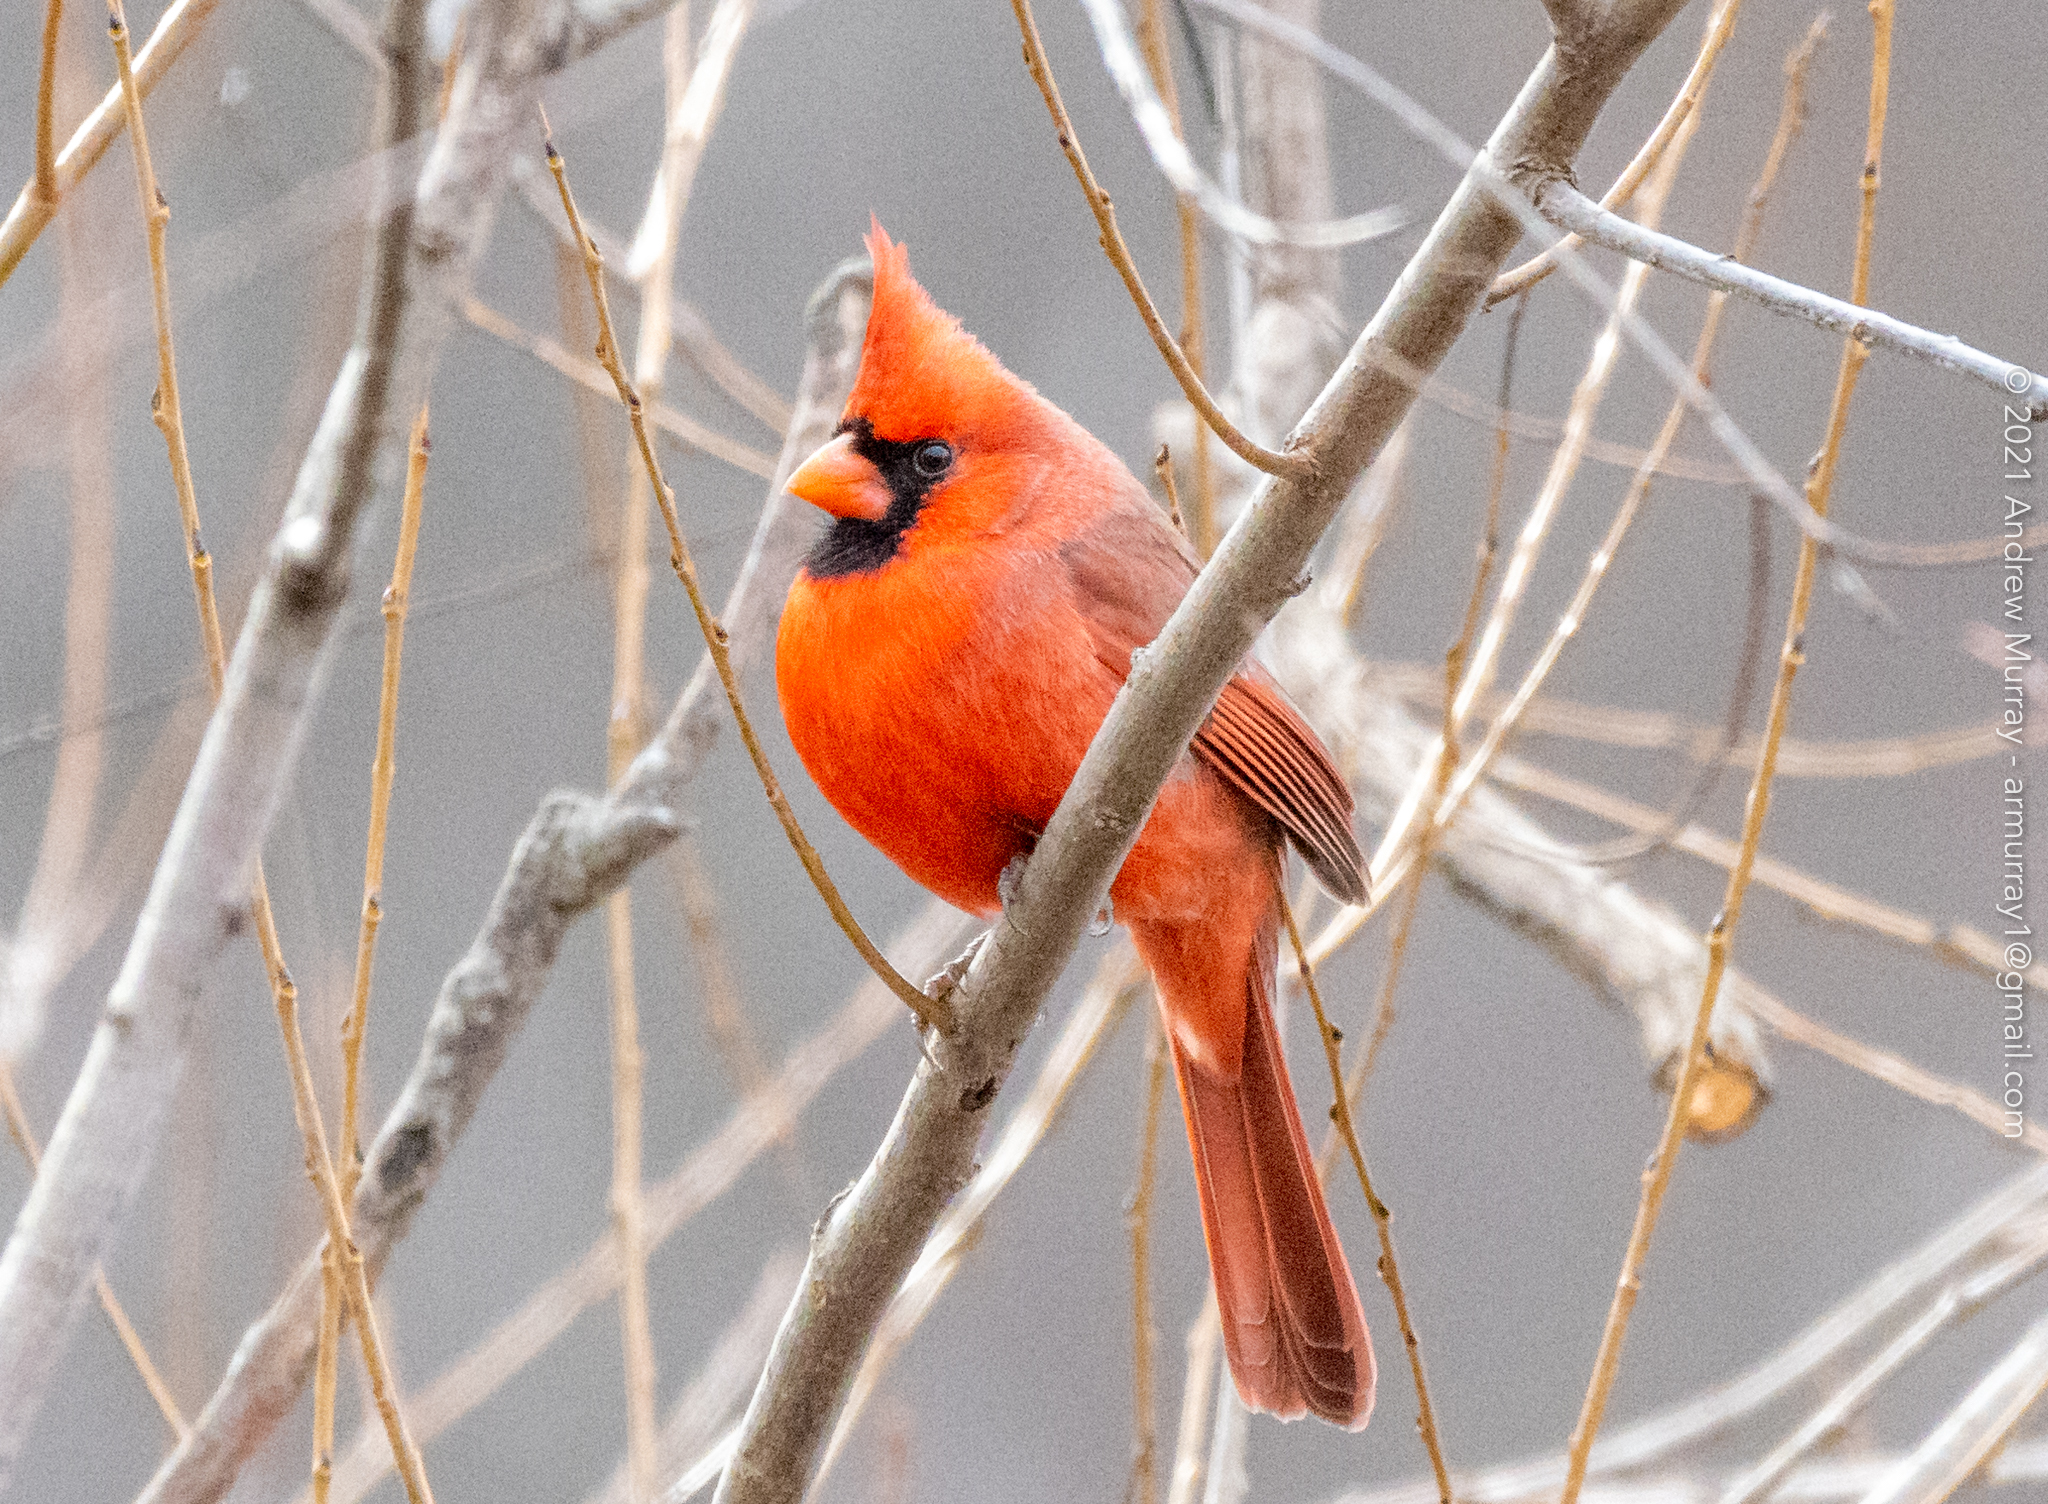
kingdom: Animalia
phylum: Chordata
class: Aves
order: Passeriformes
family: Cardinalidae
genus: Cardinalis
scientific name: Cardinalis cardinalis
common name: Northern cardinal
